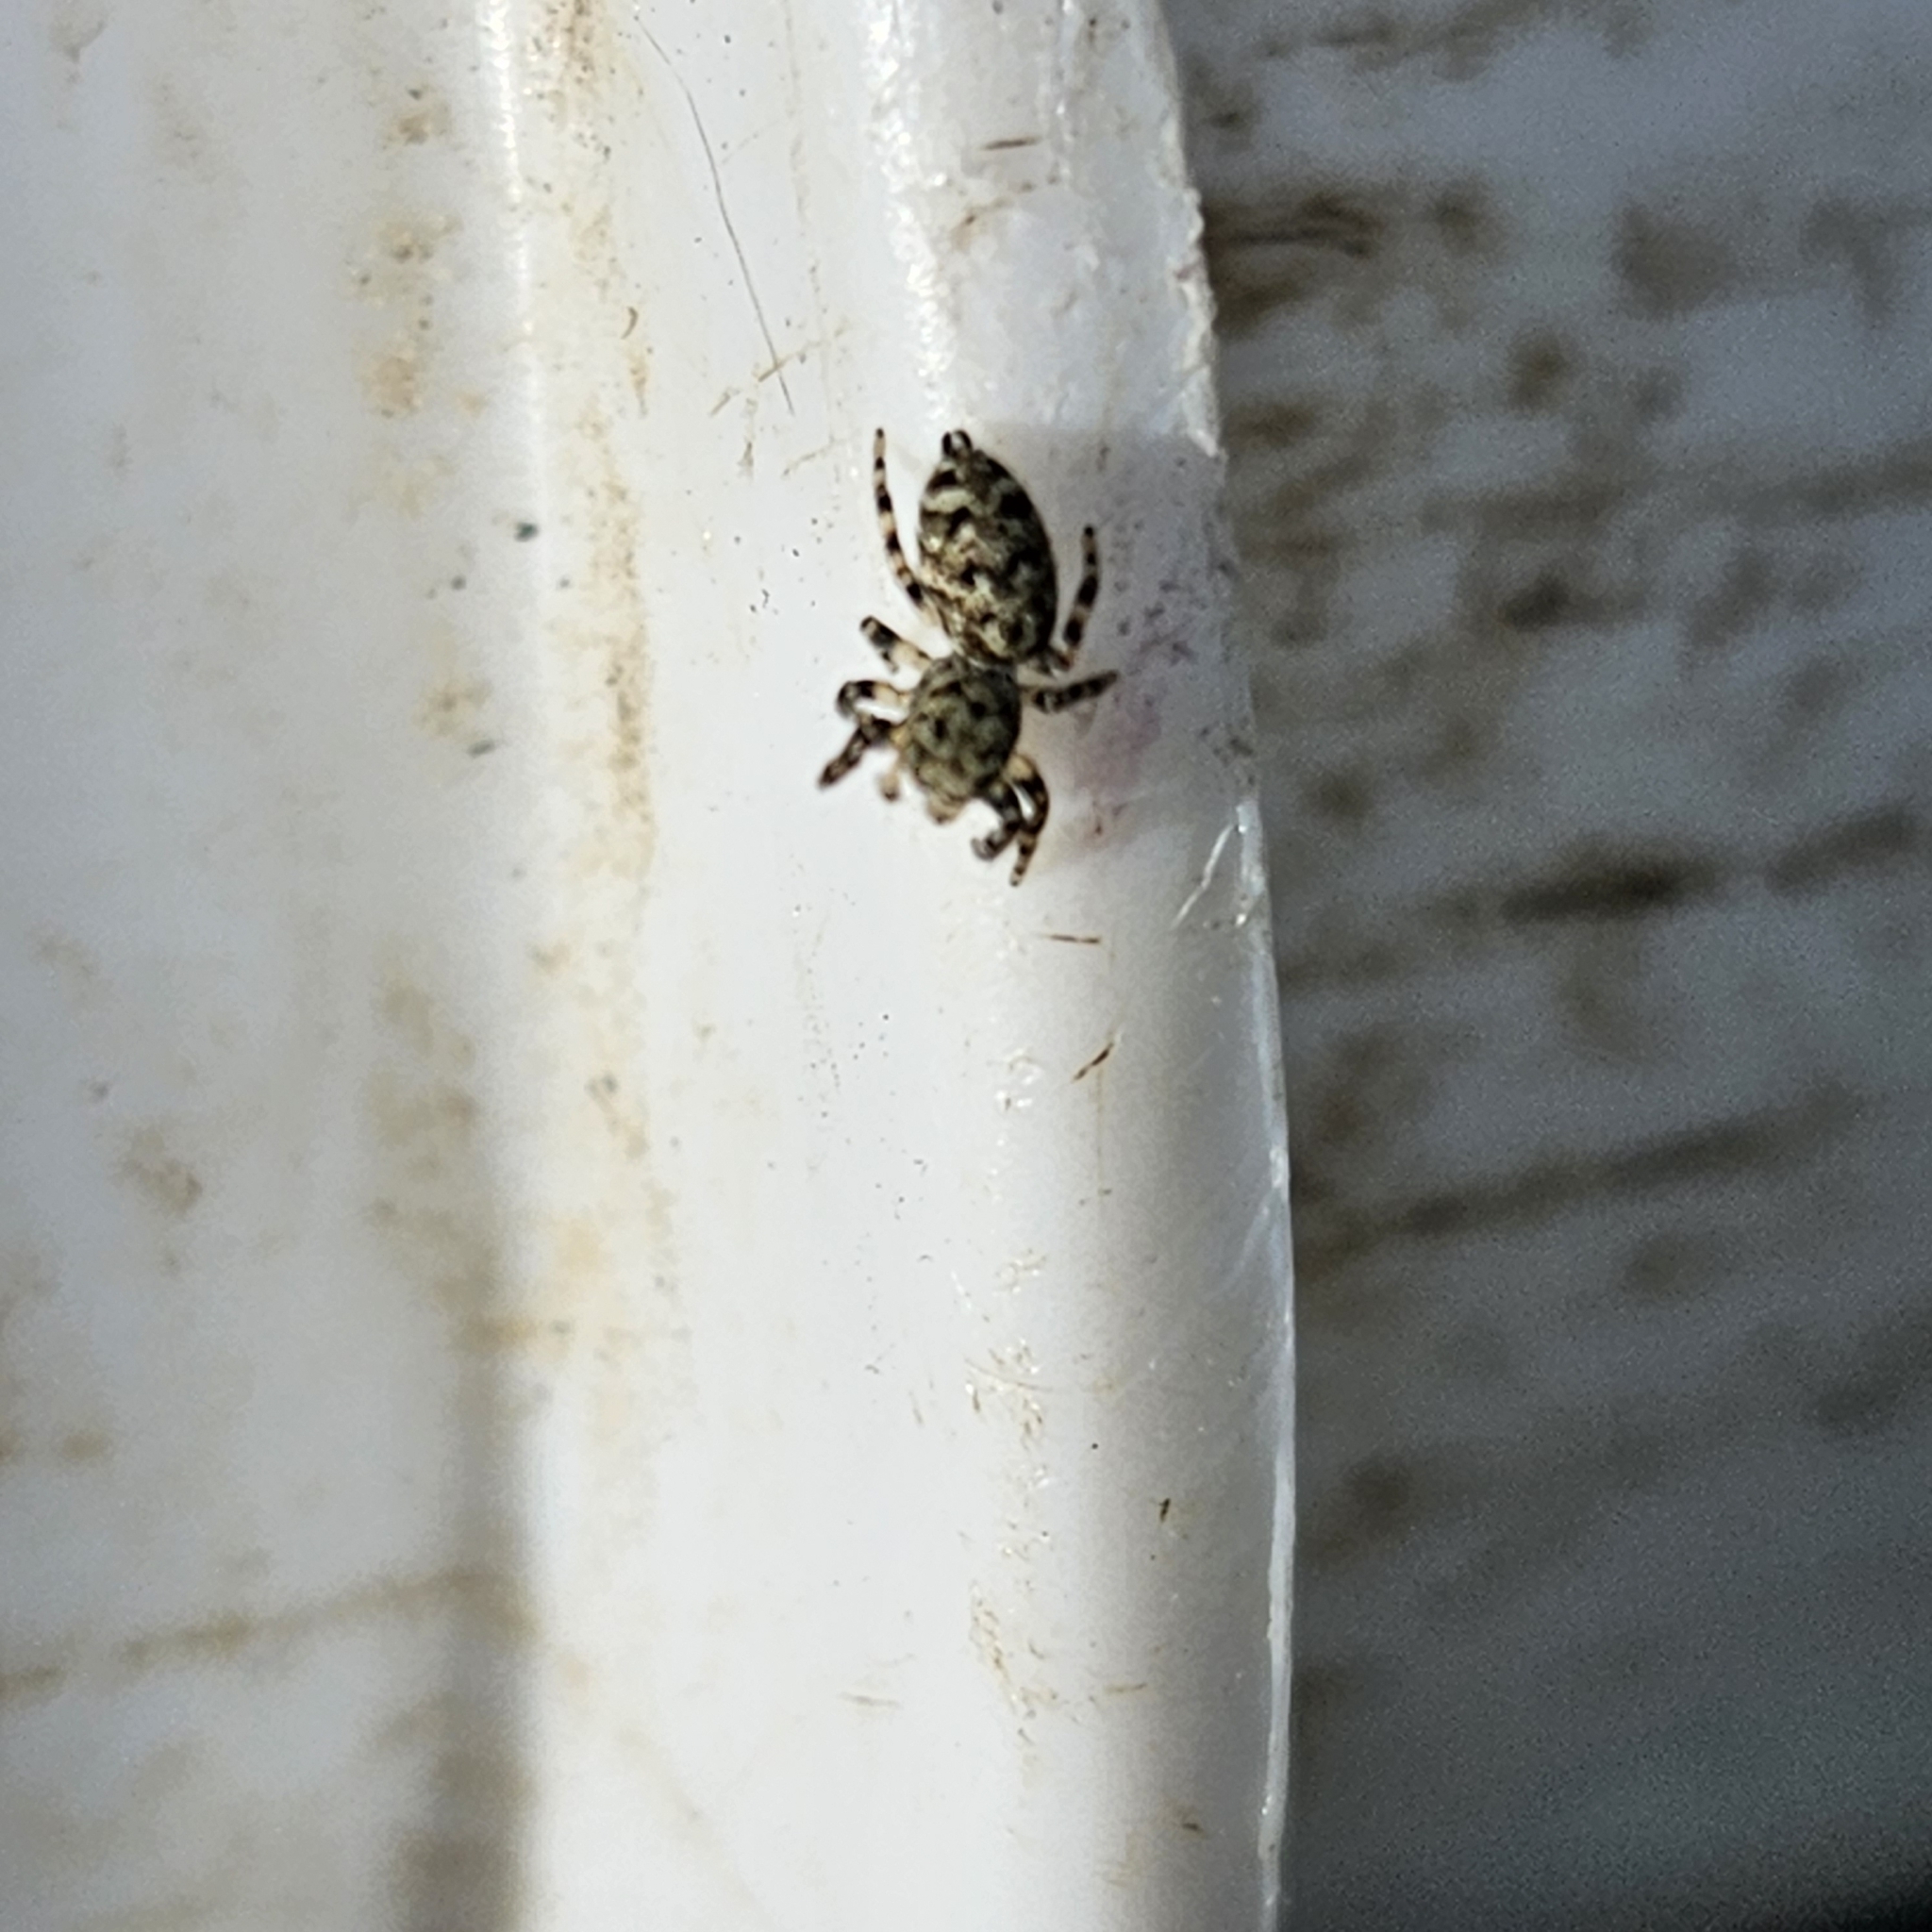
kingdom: Animalia
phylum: Arthropoda
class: Arachnida
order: Araneae
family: Salticidae
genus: Pelegrina
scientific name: Pelegrina galathea
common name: Jumping spiders
